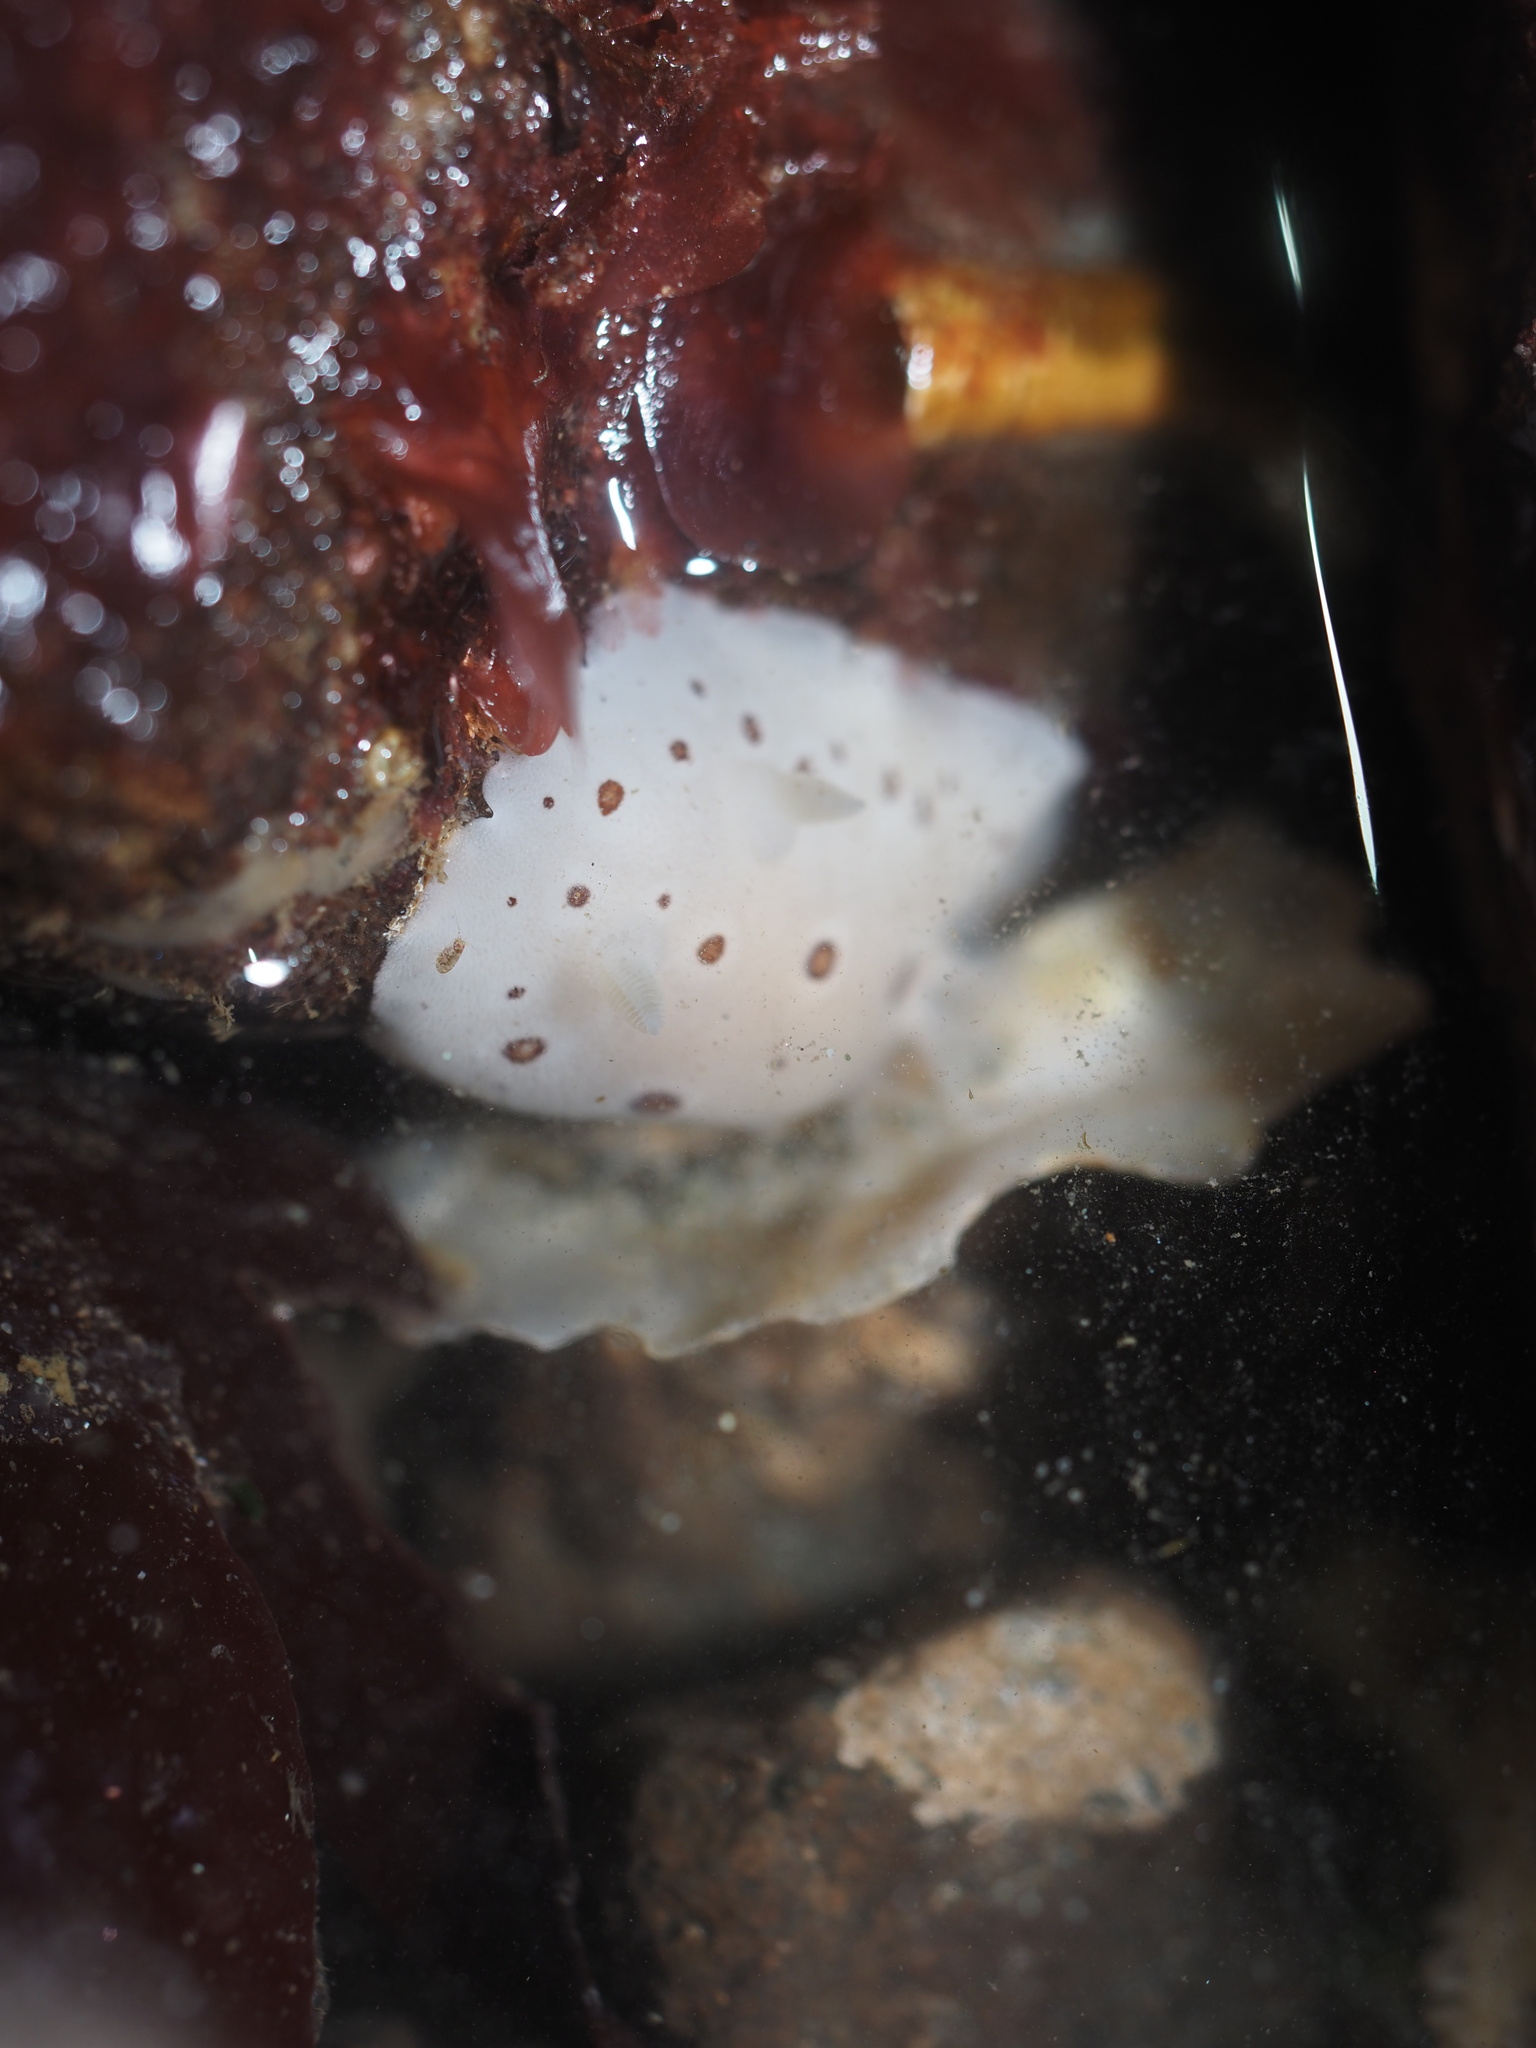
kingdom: Animalia
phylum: Mollusca
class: Gastropoda
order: Nudibranchia
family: Discodorididae
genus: Diaulula
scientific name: Diaulula odonoghuei
